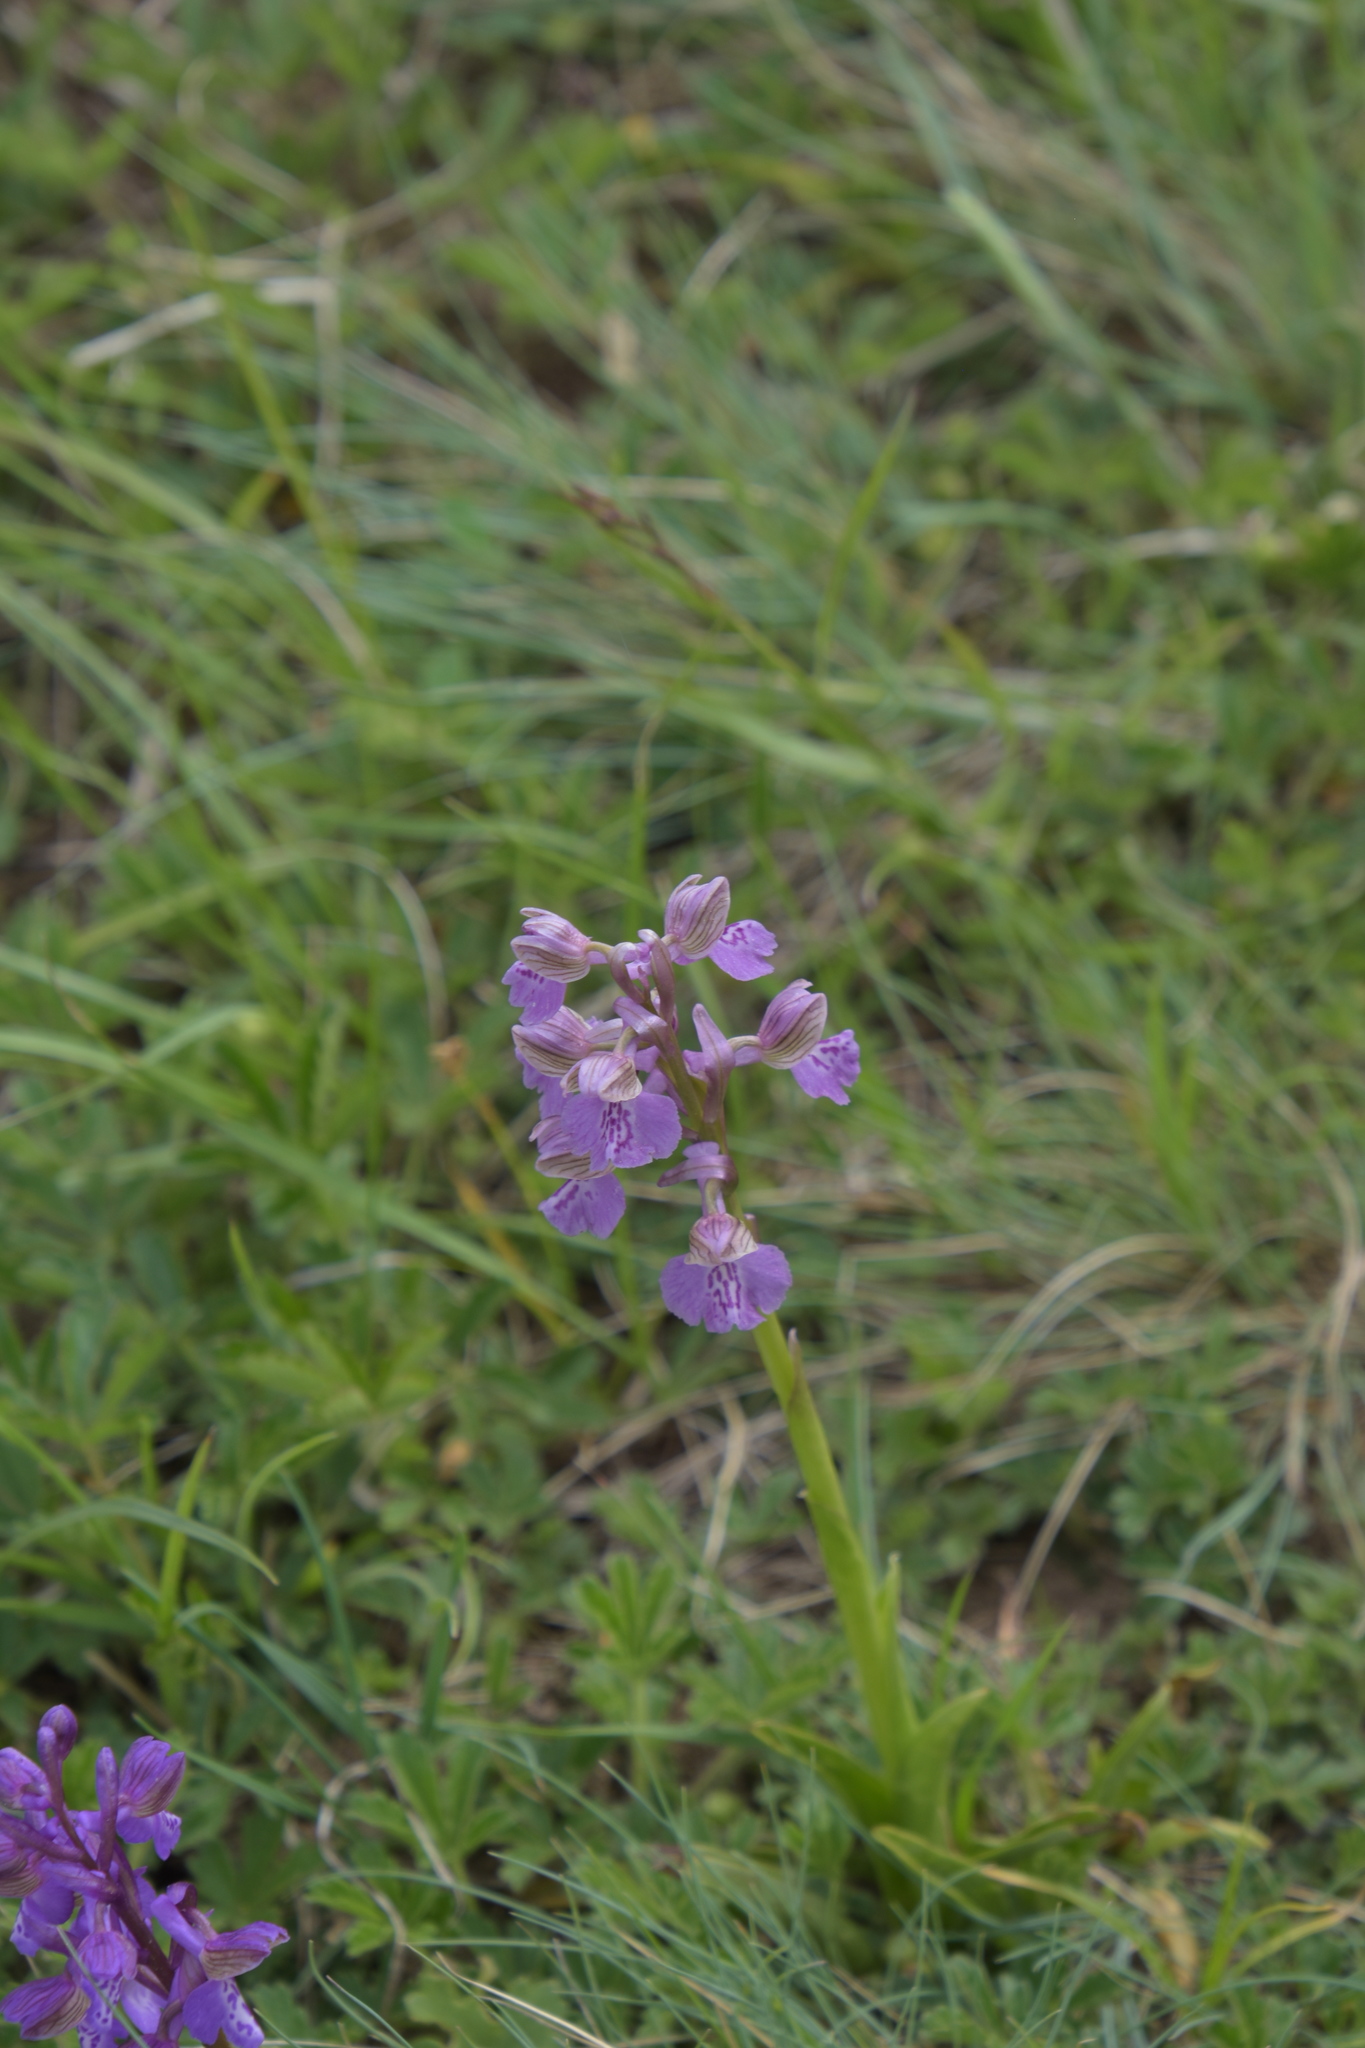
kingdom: Plantae
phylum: Tracheophyta
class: Liliopsida
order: Asparagales
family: Orchidaceae
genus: Anacamptis
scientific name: Anacamptis morio
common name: Green-winged orchid
